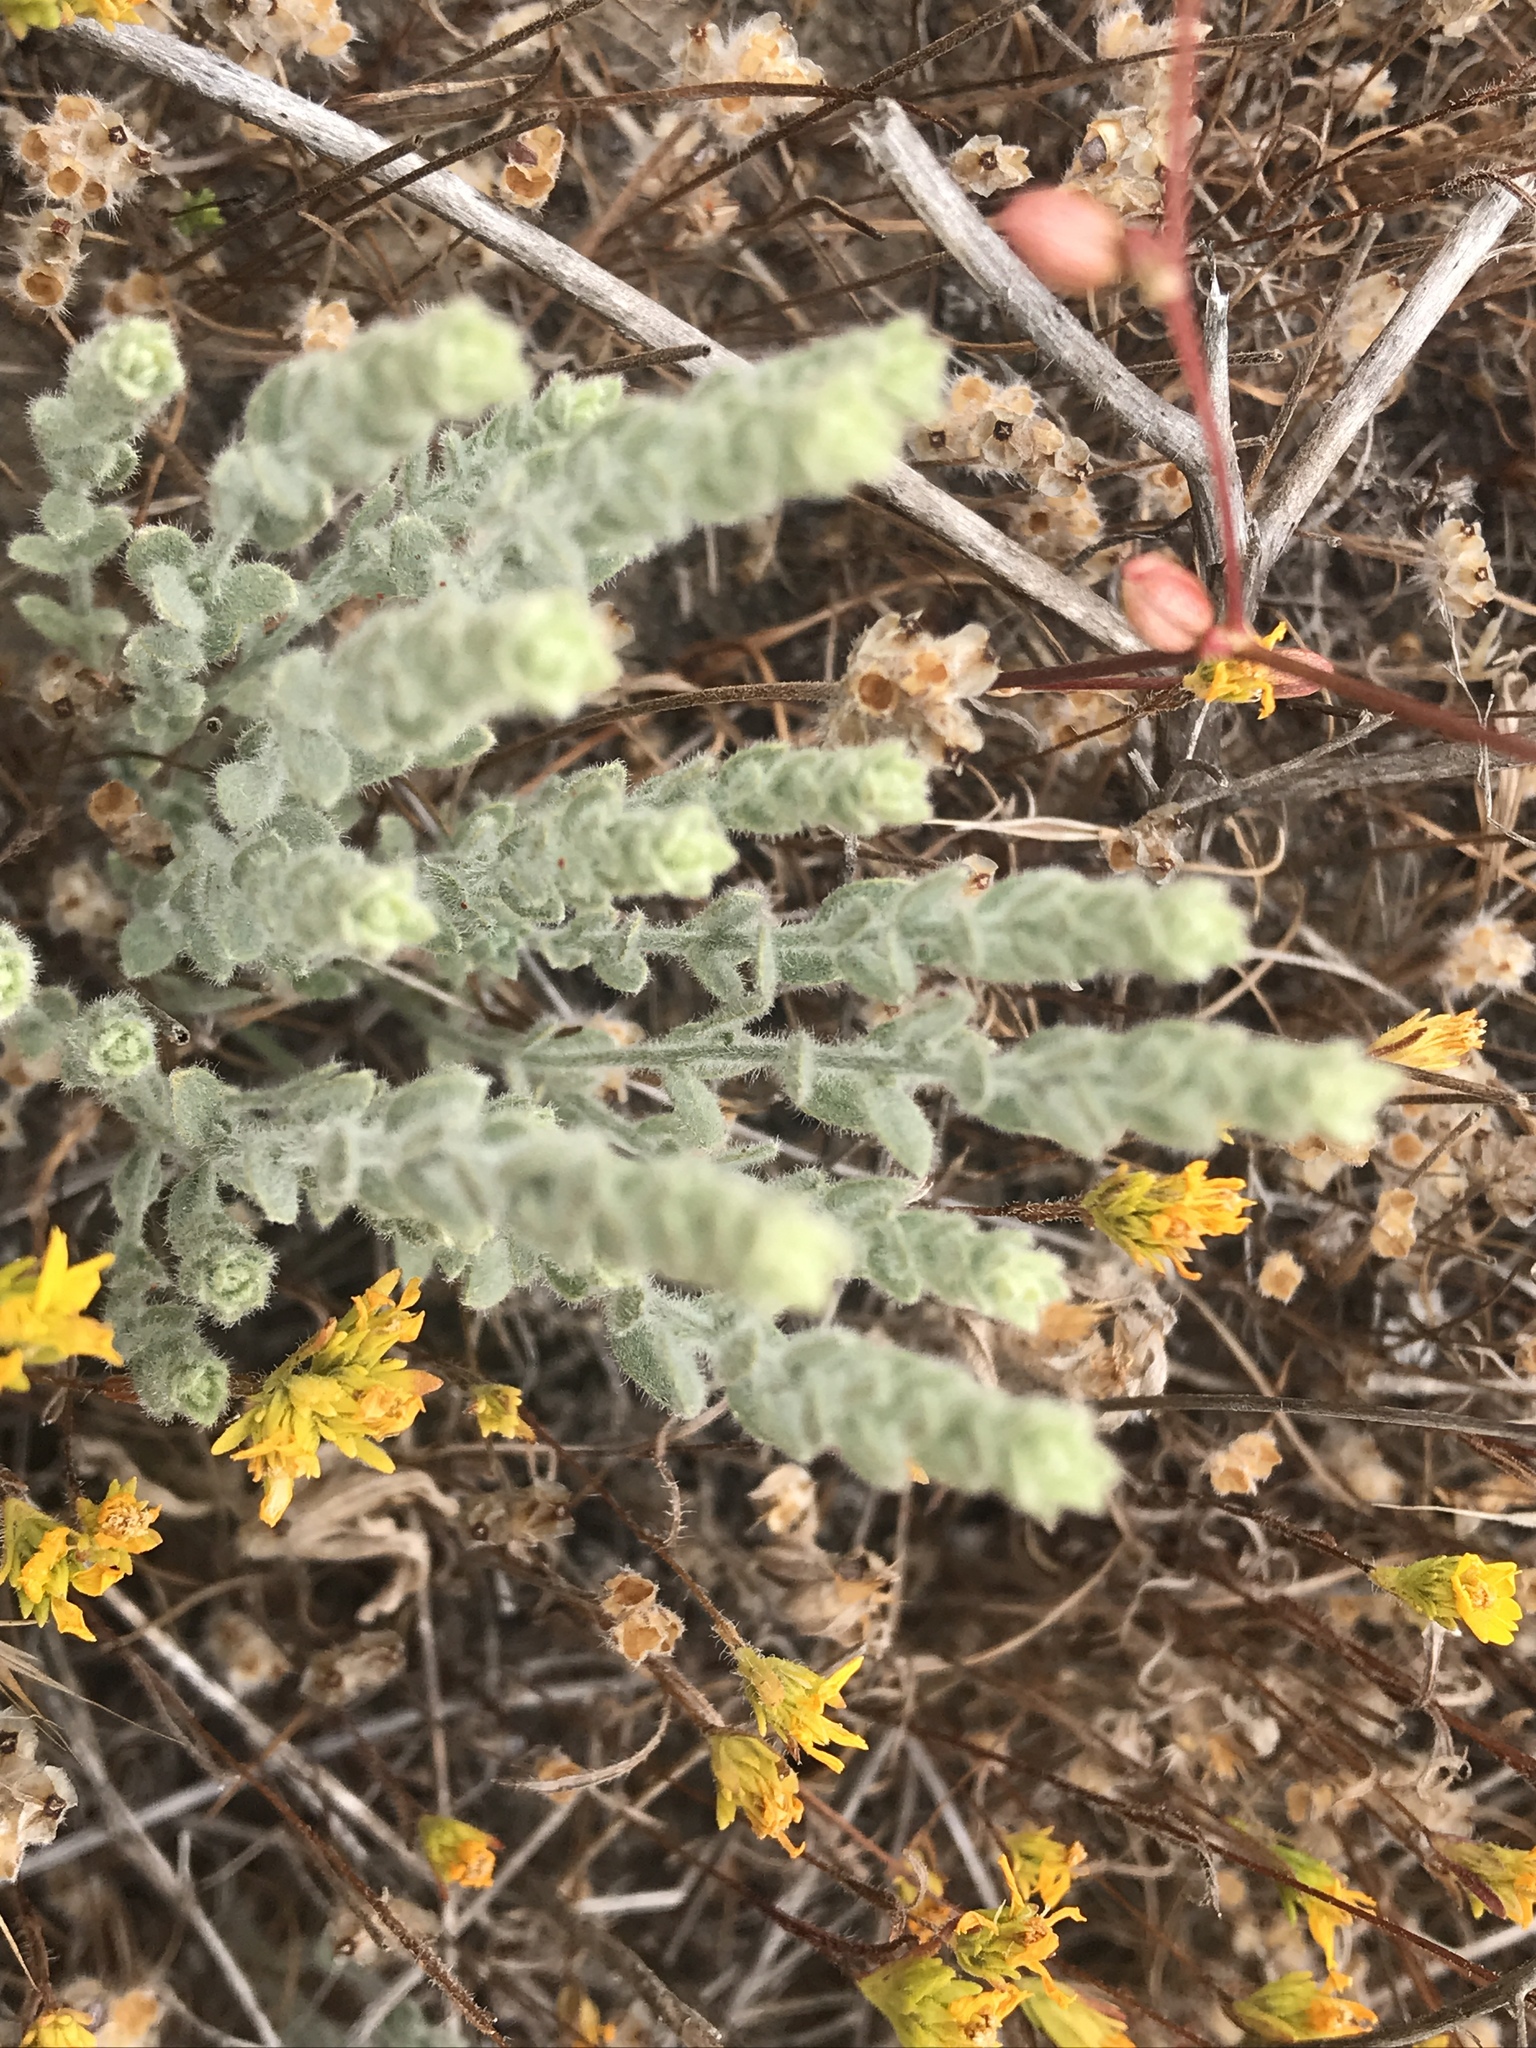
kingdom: Plantae
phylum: Tracheophyta
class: Magnoliopsida
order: Solanales
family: Convolvulaceae
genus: Cressa
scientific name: Cressa truxillensis
